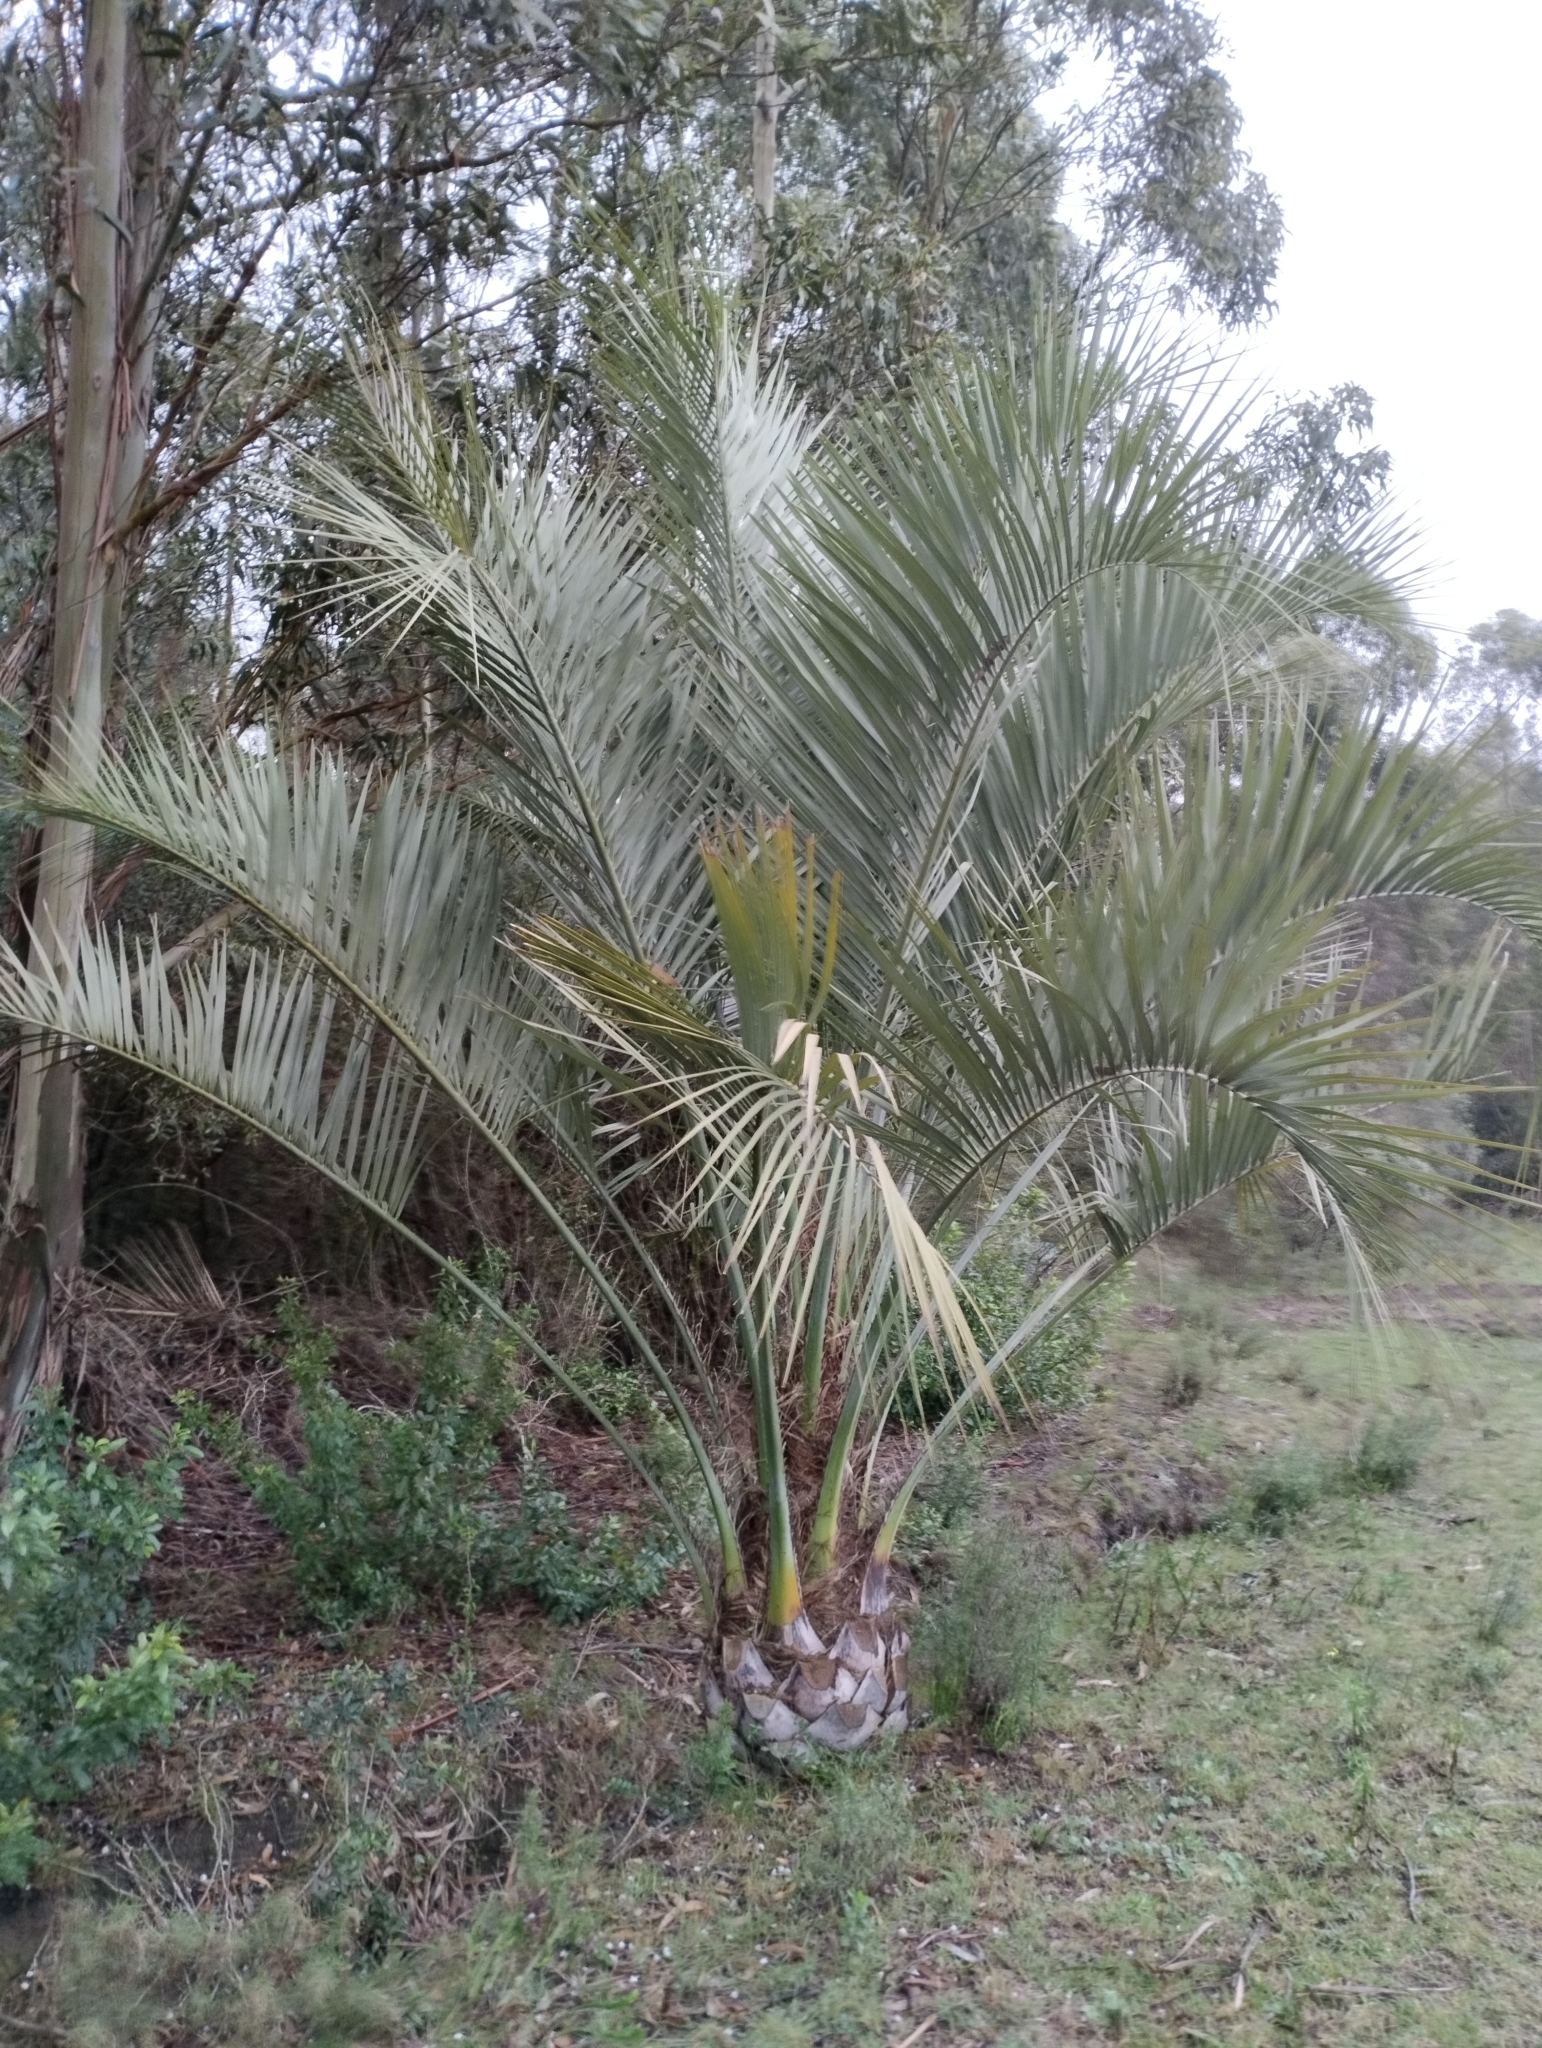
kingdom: Plantae
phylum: Tracheophyta
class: Liliopsida
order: Arecales
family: Arecaceae
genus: Butia
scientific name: Butia odorata
